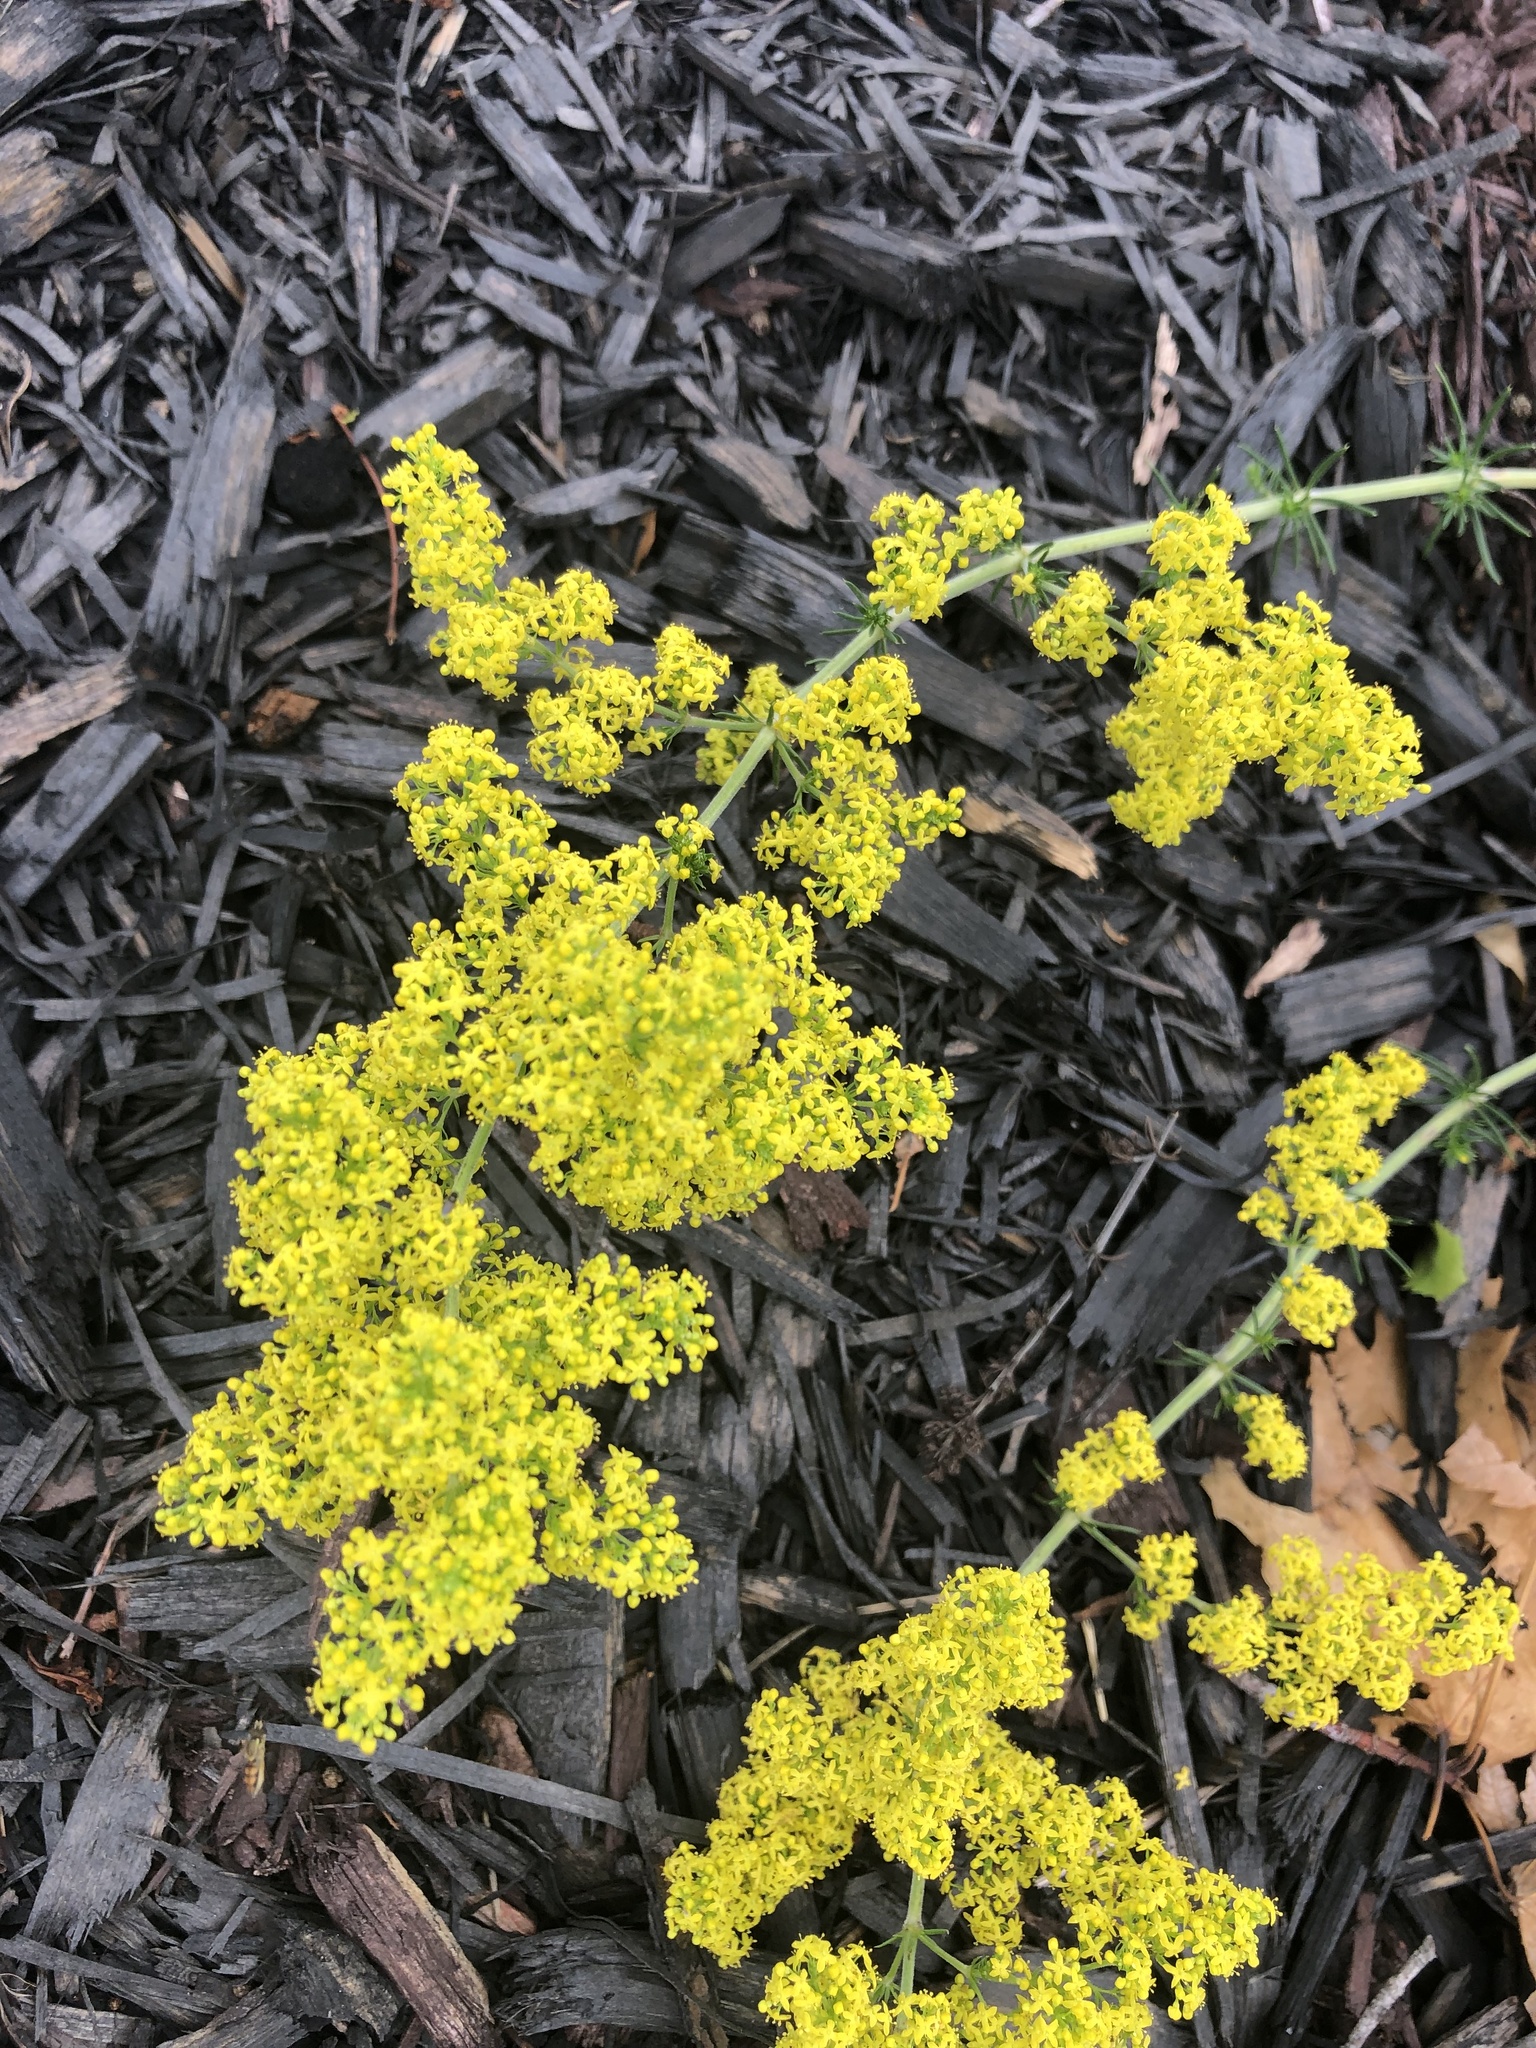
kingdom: Plantae
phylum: Tracheophyta
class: Magnoliopsida
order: Gentianales
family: Rubiaceae
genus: Galium
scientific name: Galium verum
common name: Lady's bedstraw
